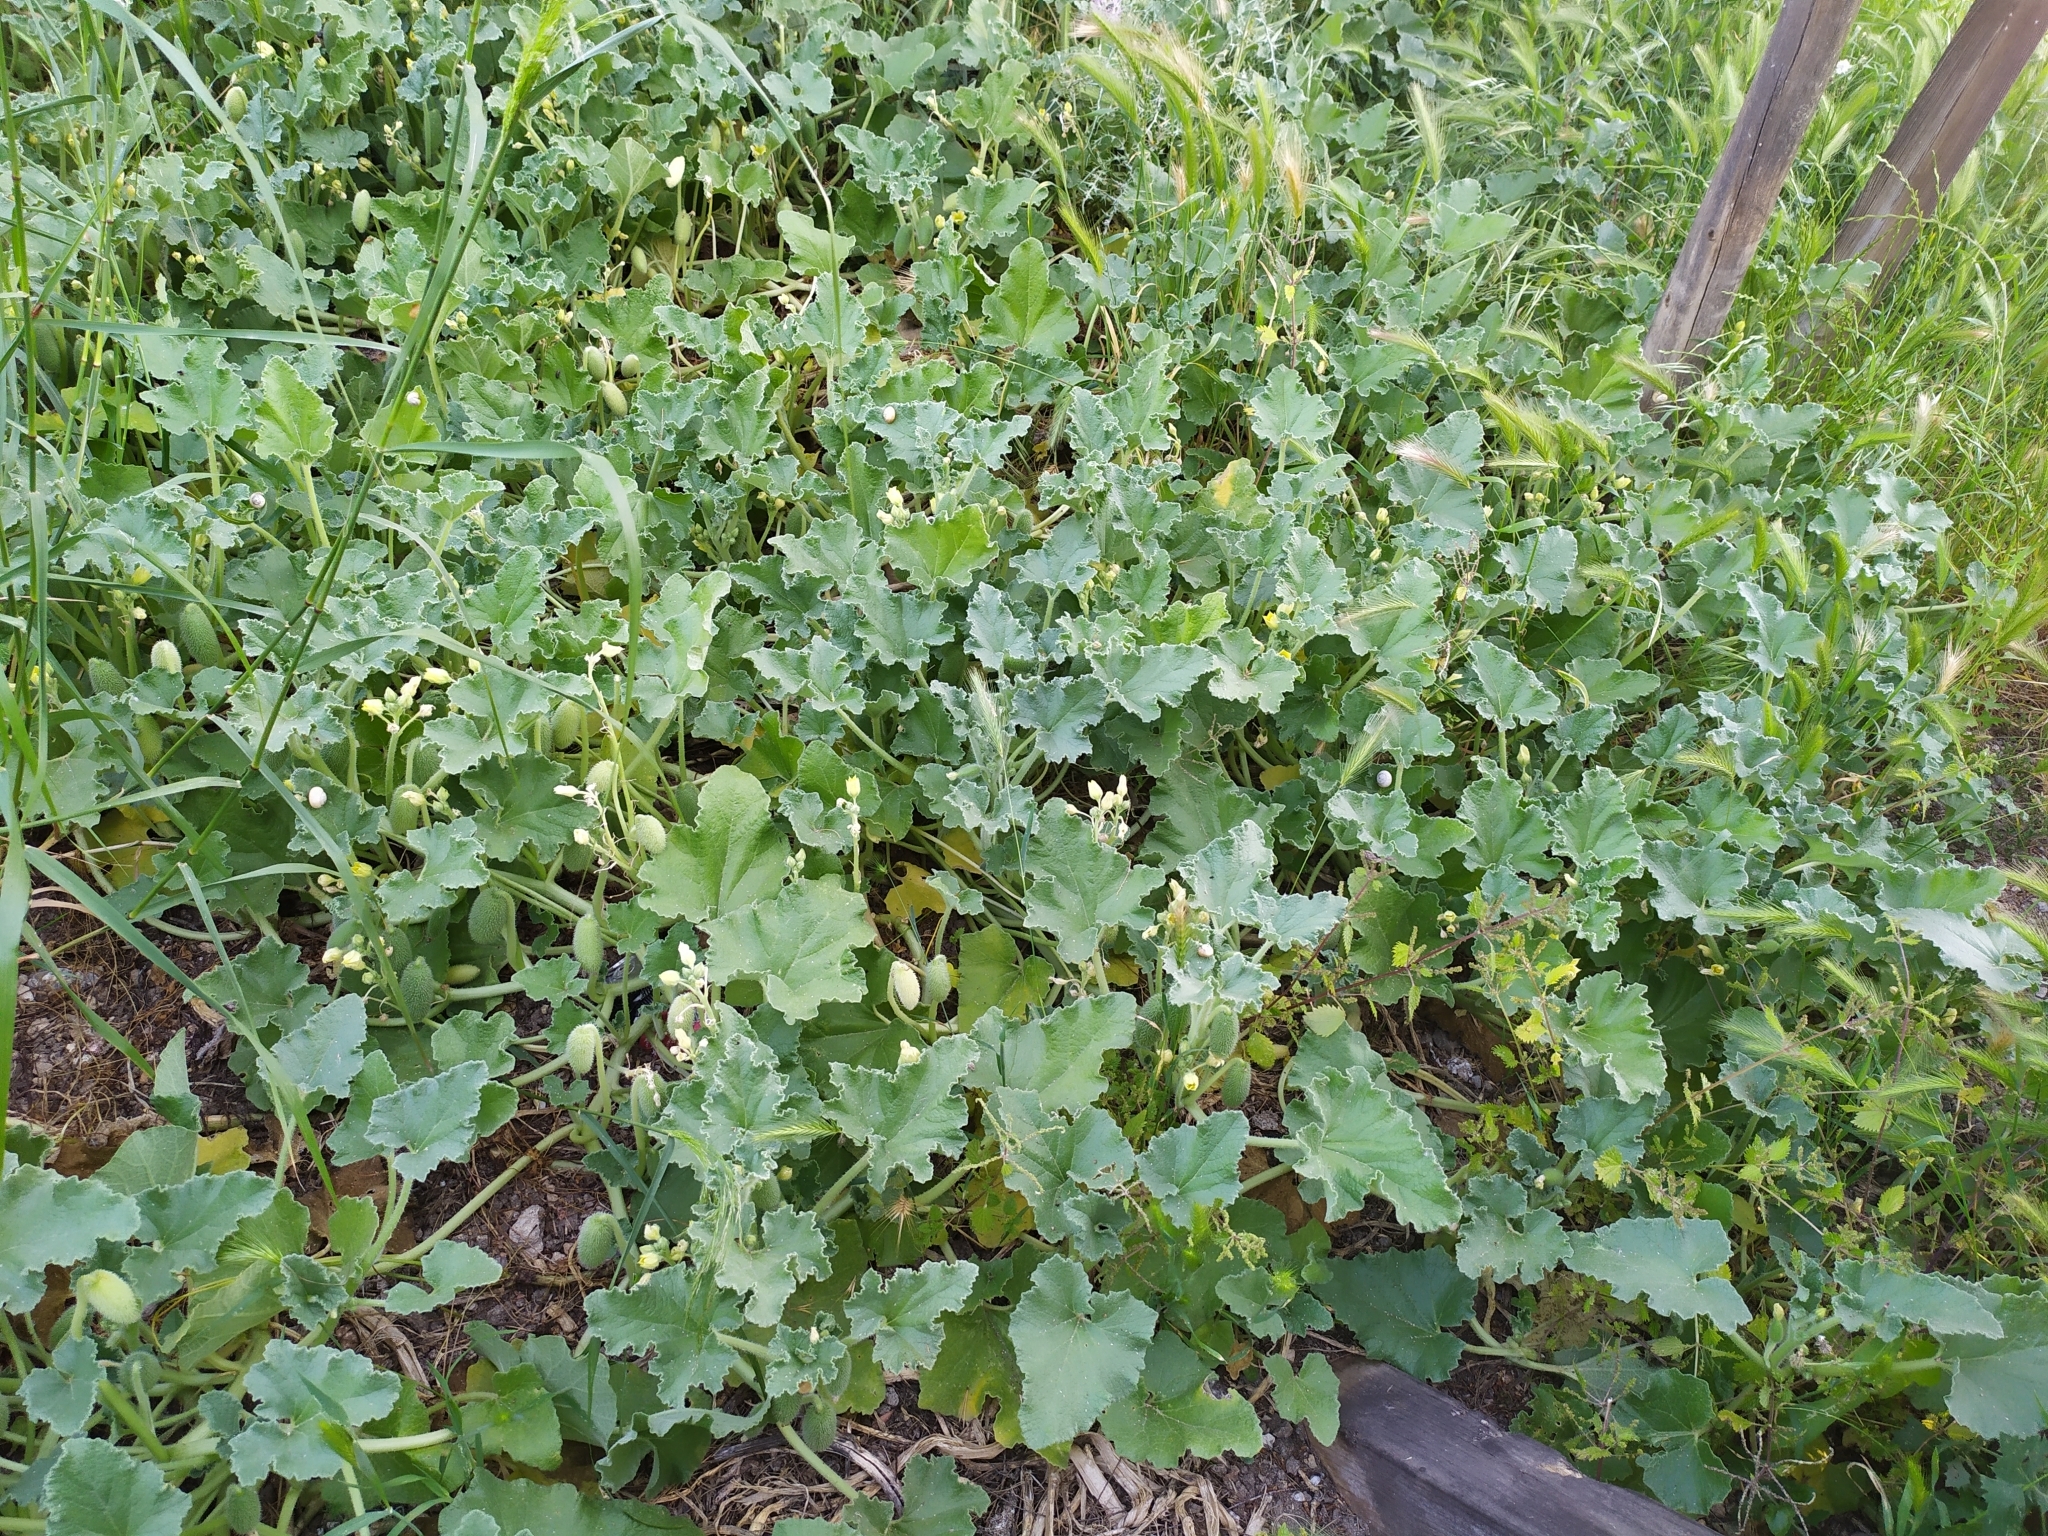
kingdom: Plantae
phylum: Tracheophyta
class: Magnoliopsida
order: Cucurbitales
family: Cucurbitaceae
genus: Ecballium
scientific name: Ecballium elaterium
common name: Squirting cucumber
